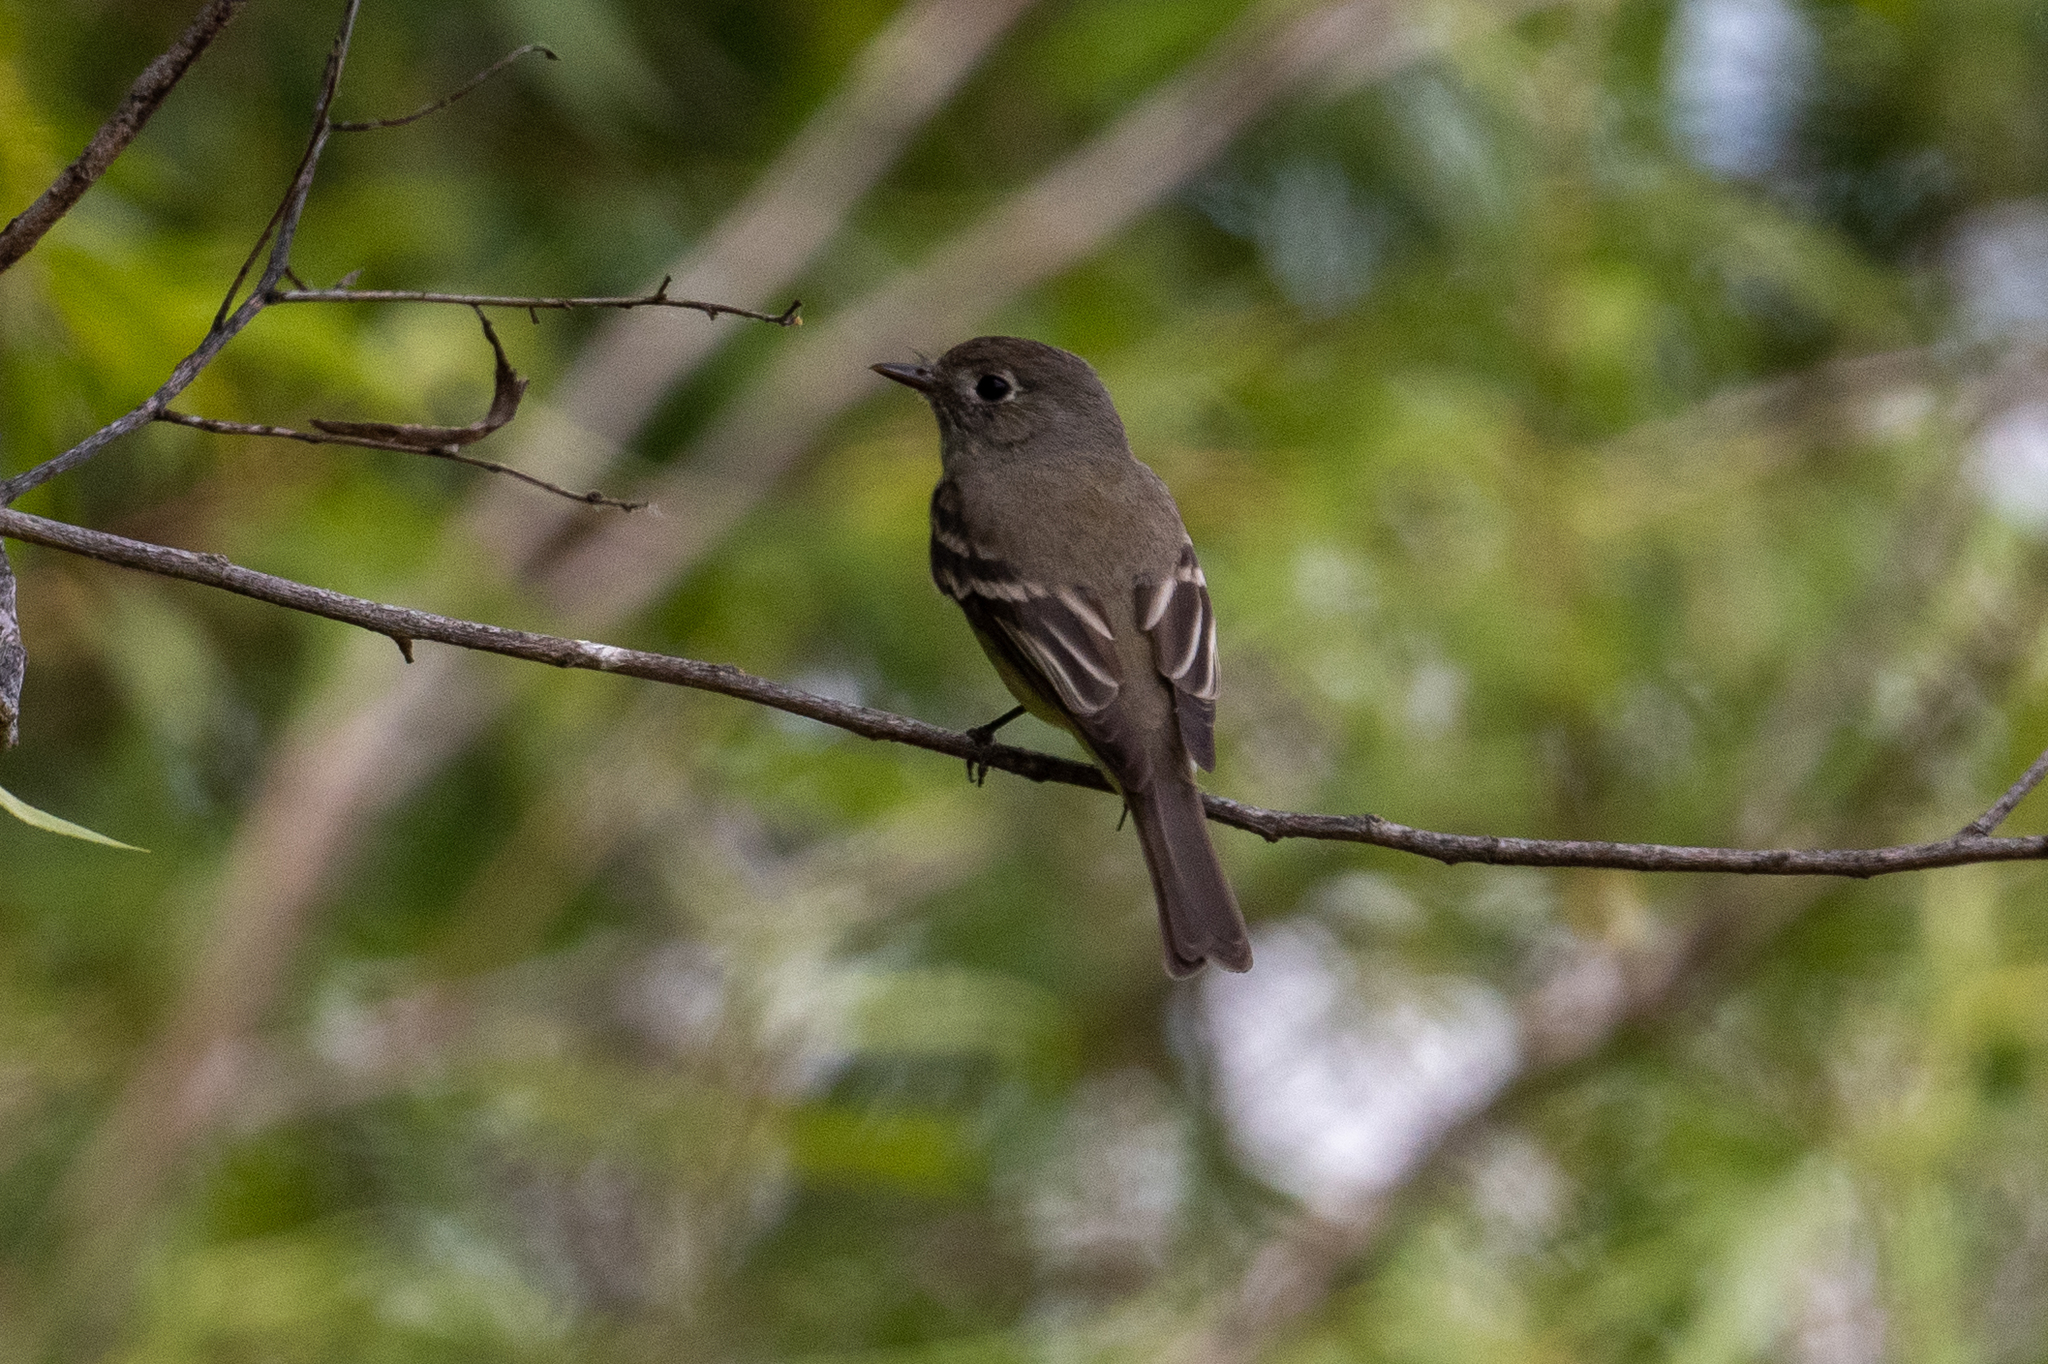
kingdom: Animalia
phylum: Chordata
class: Aves
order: Passeriformes
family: Tyrannidae
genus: Empidonax
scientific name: Empidonax hammondii
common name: Hammond's flycatcher
